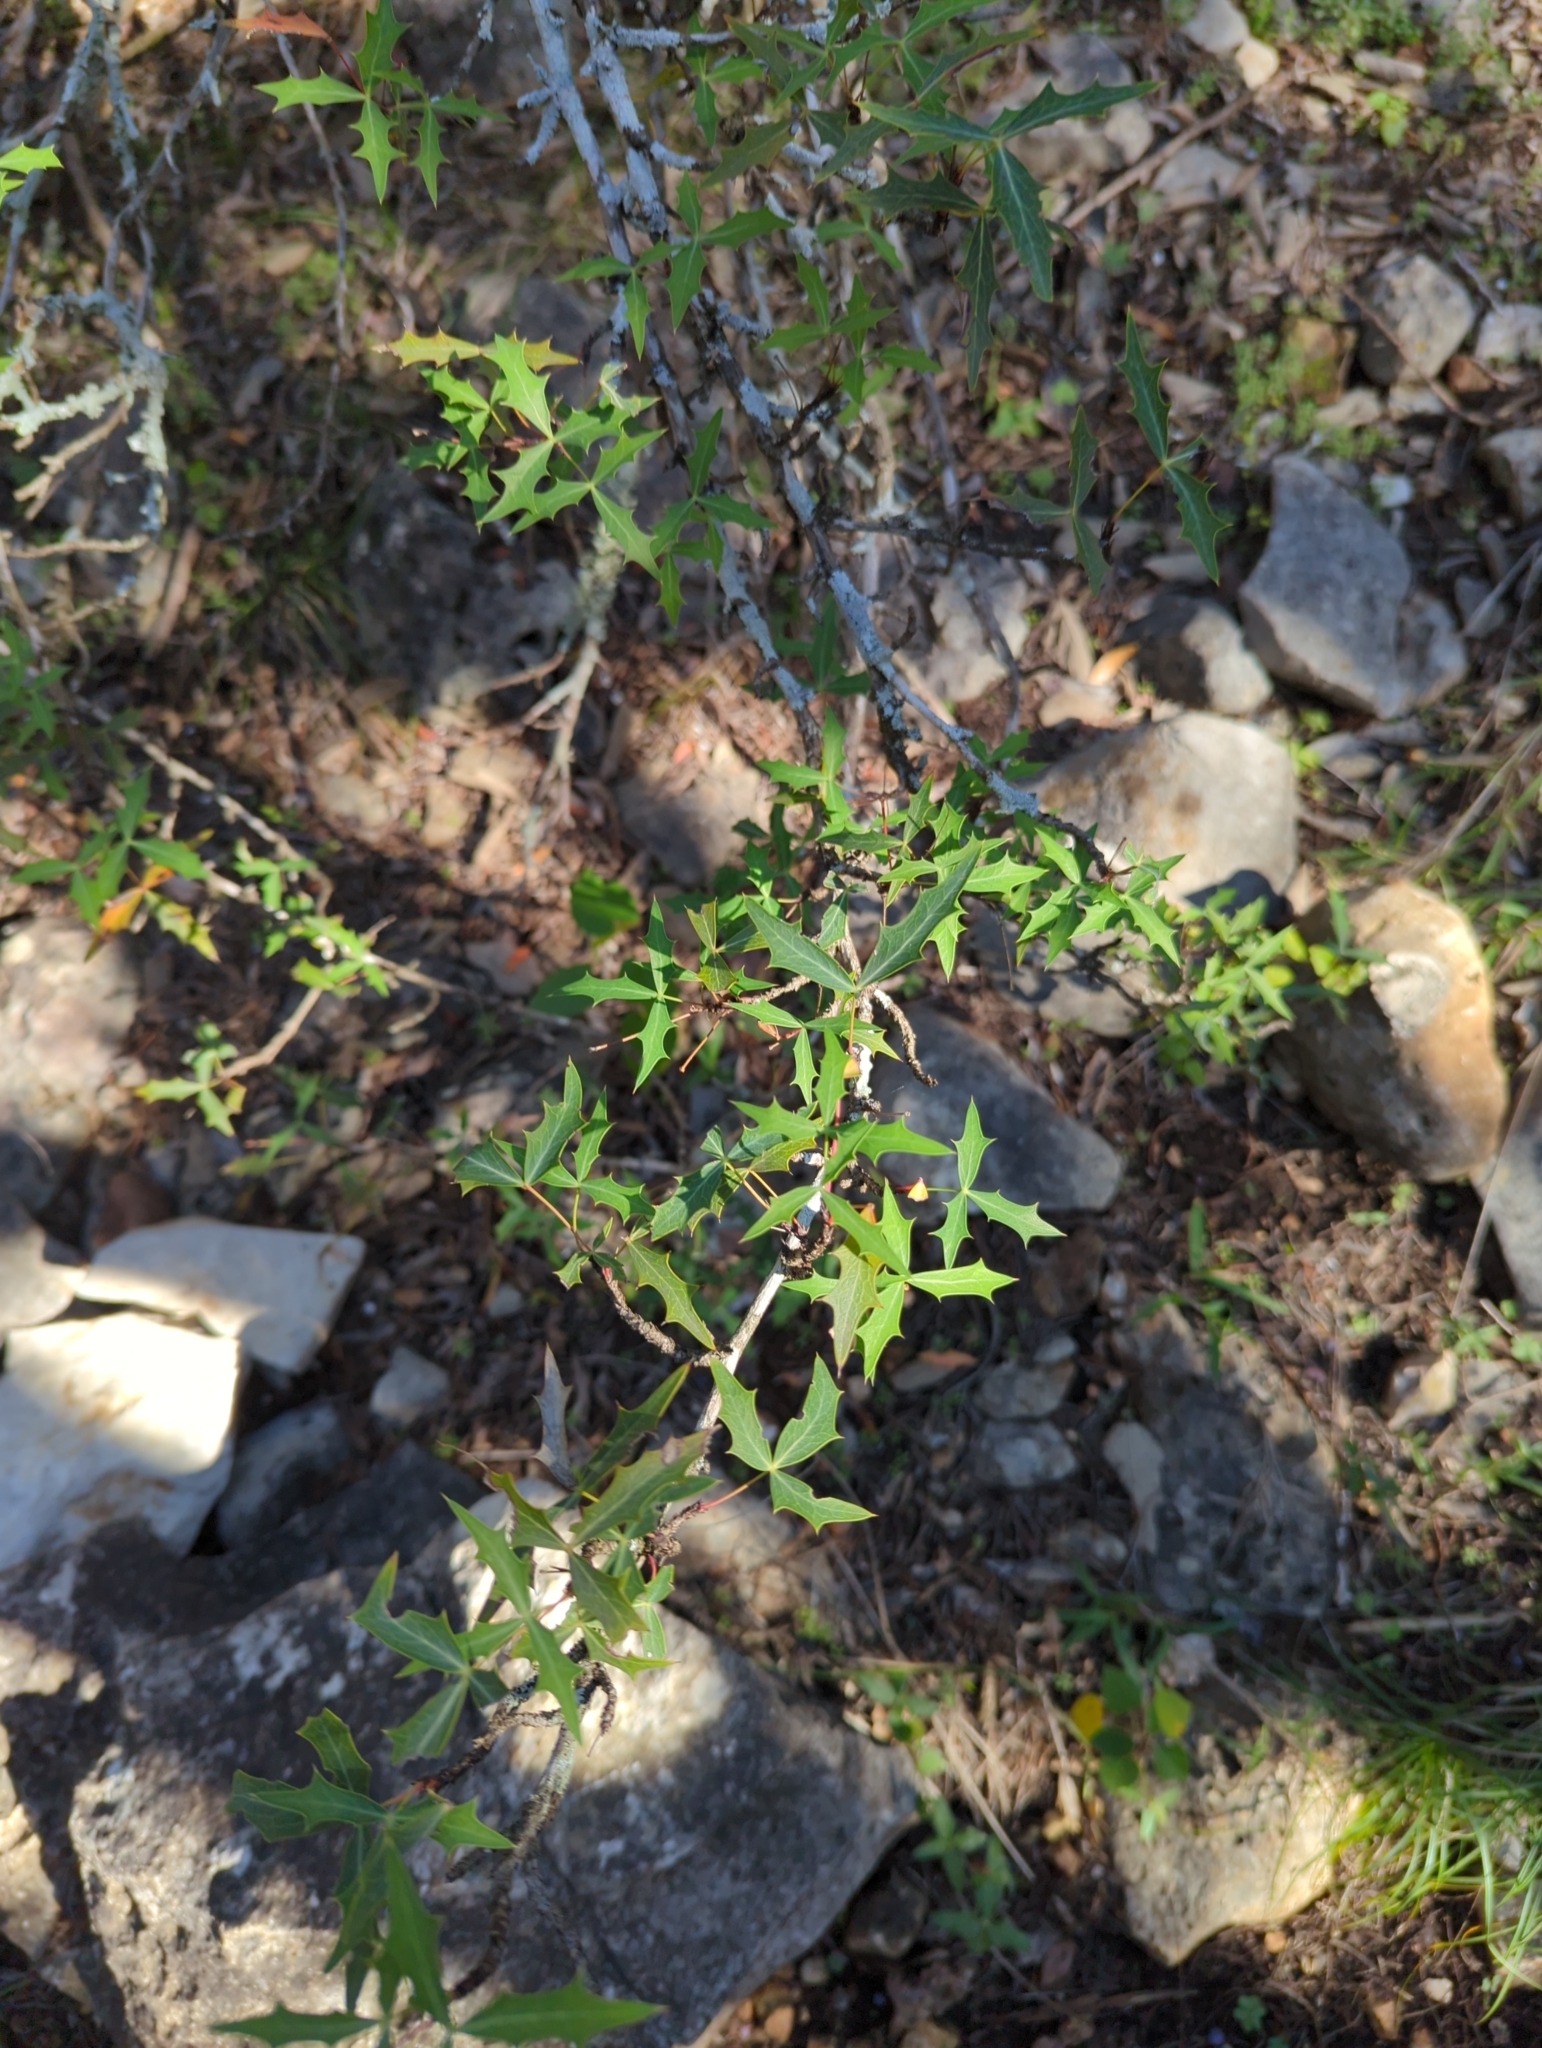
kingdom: Plantae
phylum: Tracheophyta
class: Magnoliopsida
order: Ranunculales
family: Berberidaceae
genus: Alloberberis
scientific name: Alloberberis trifoliolata
